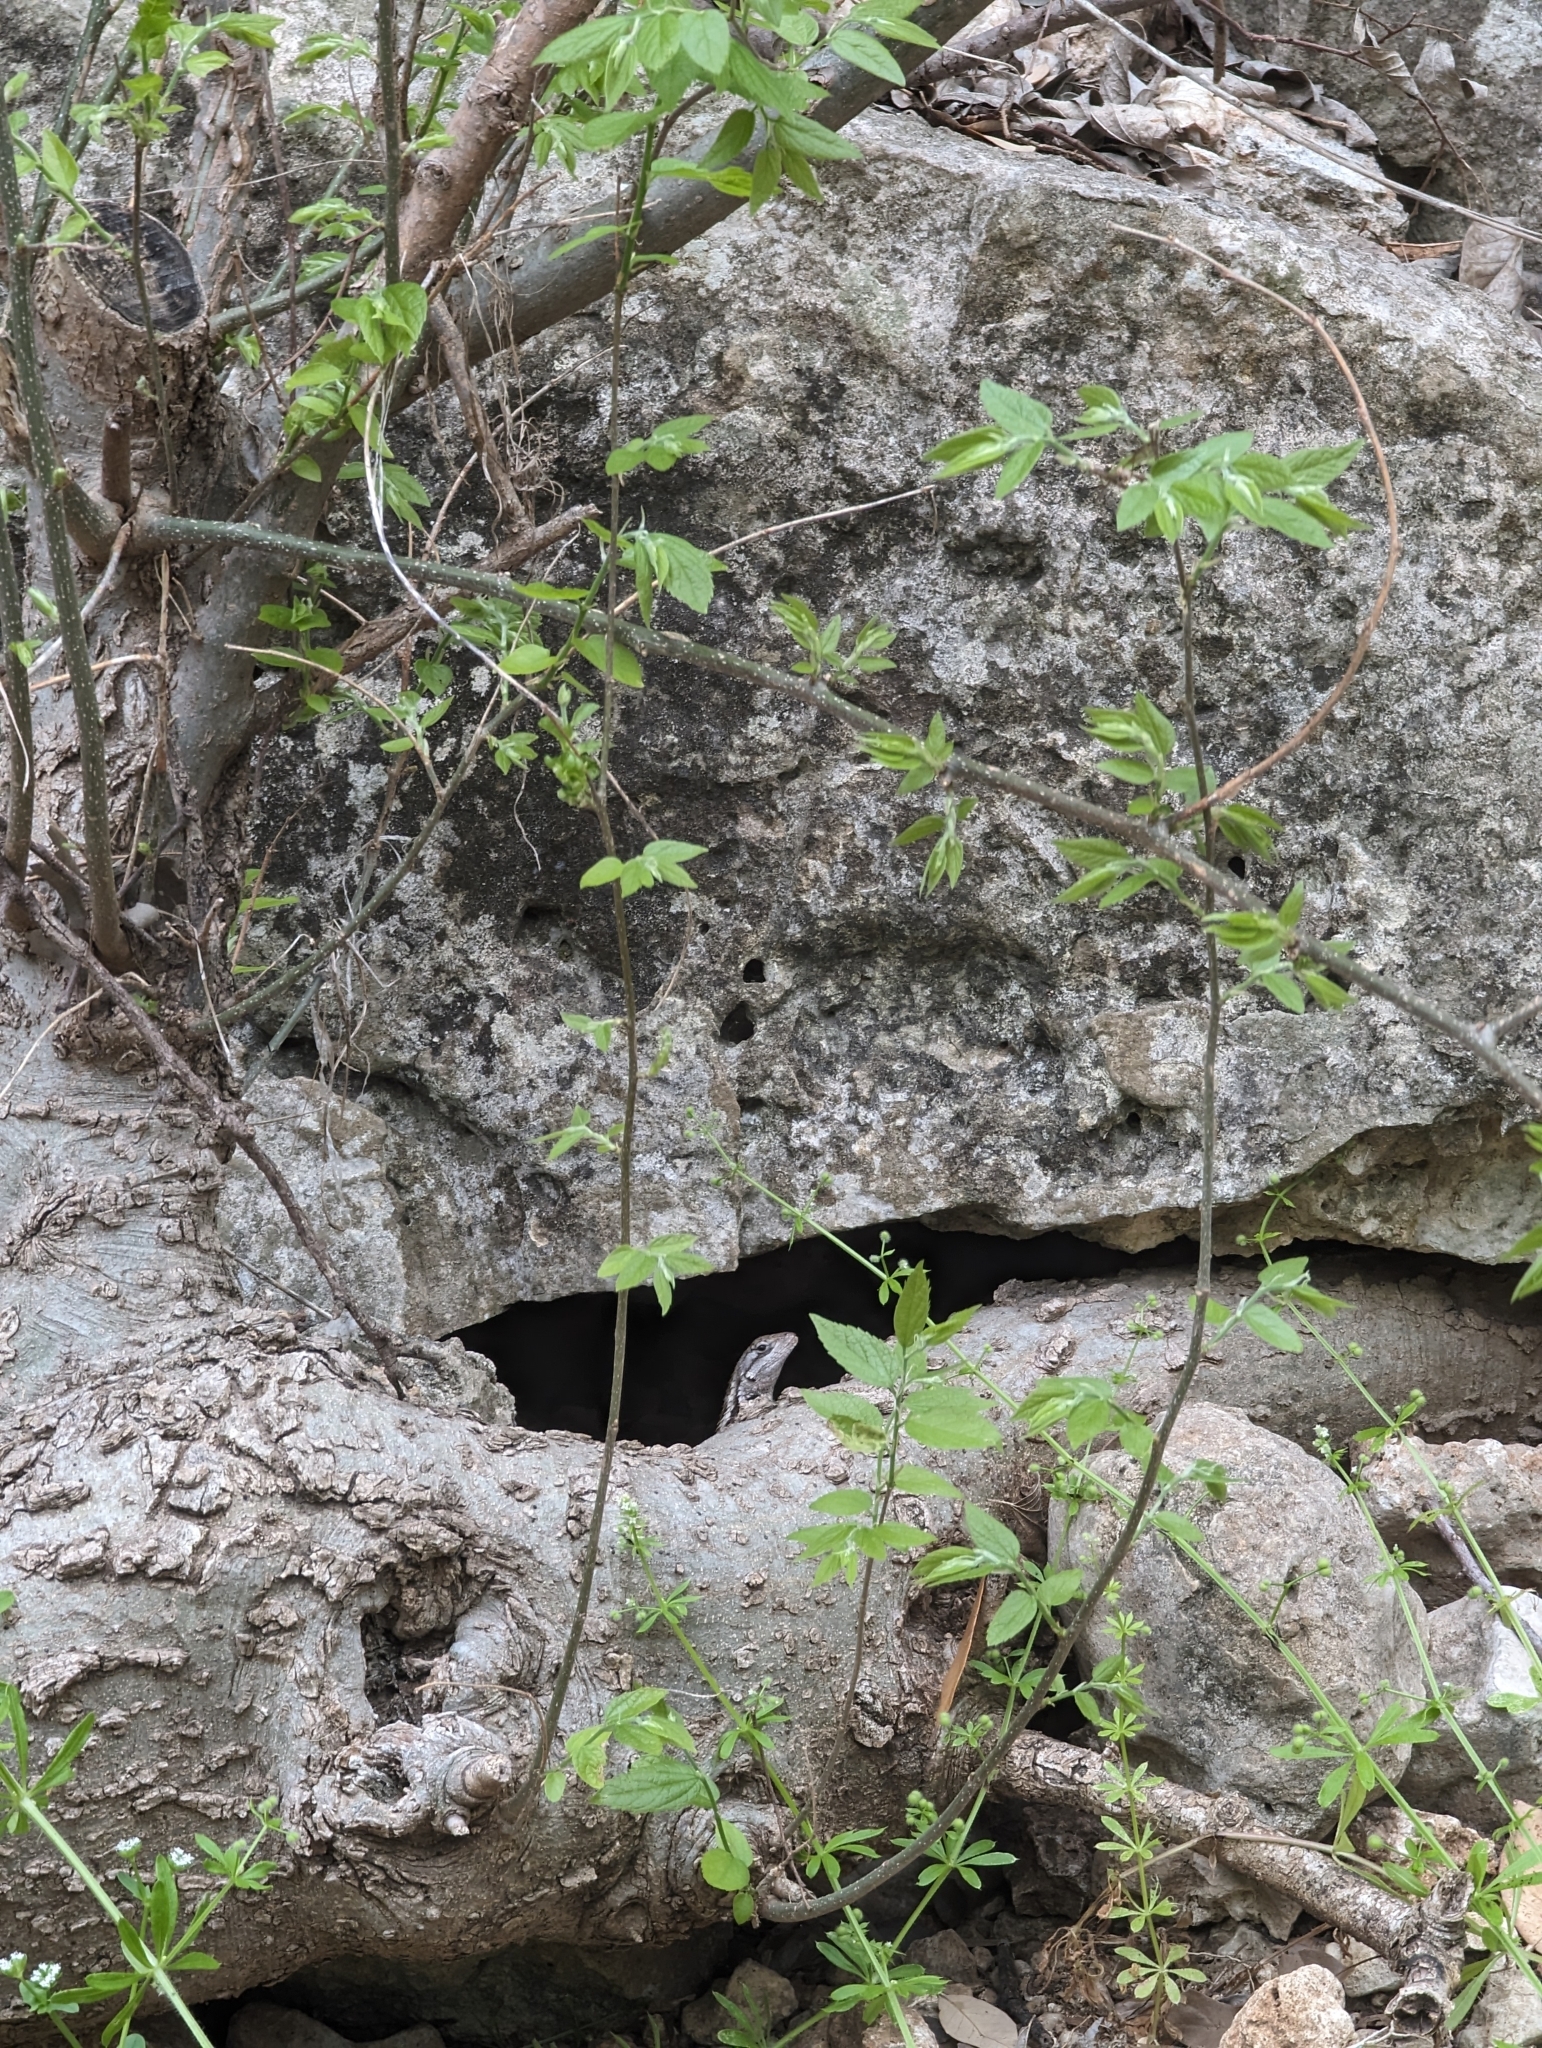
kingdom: Animalia
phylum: Chordata
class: Squamata
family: Phrynosomatidae
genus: Sceloporus
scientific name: Sceloporus olivaceus
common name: Texas spiny lizard
